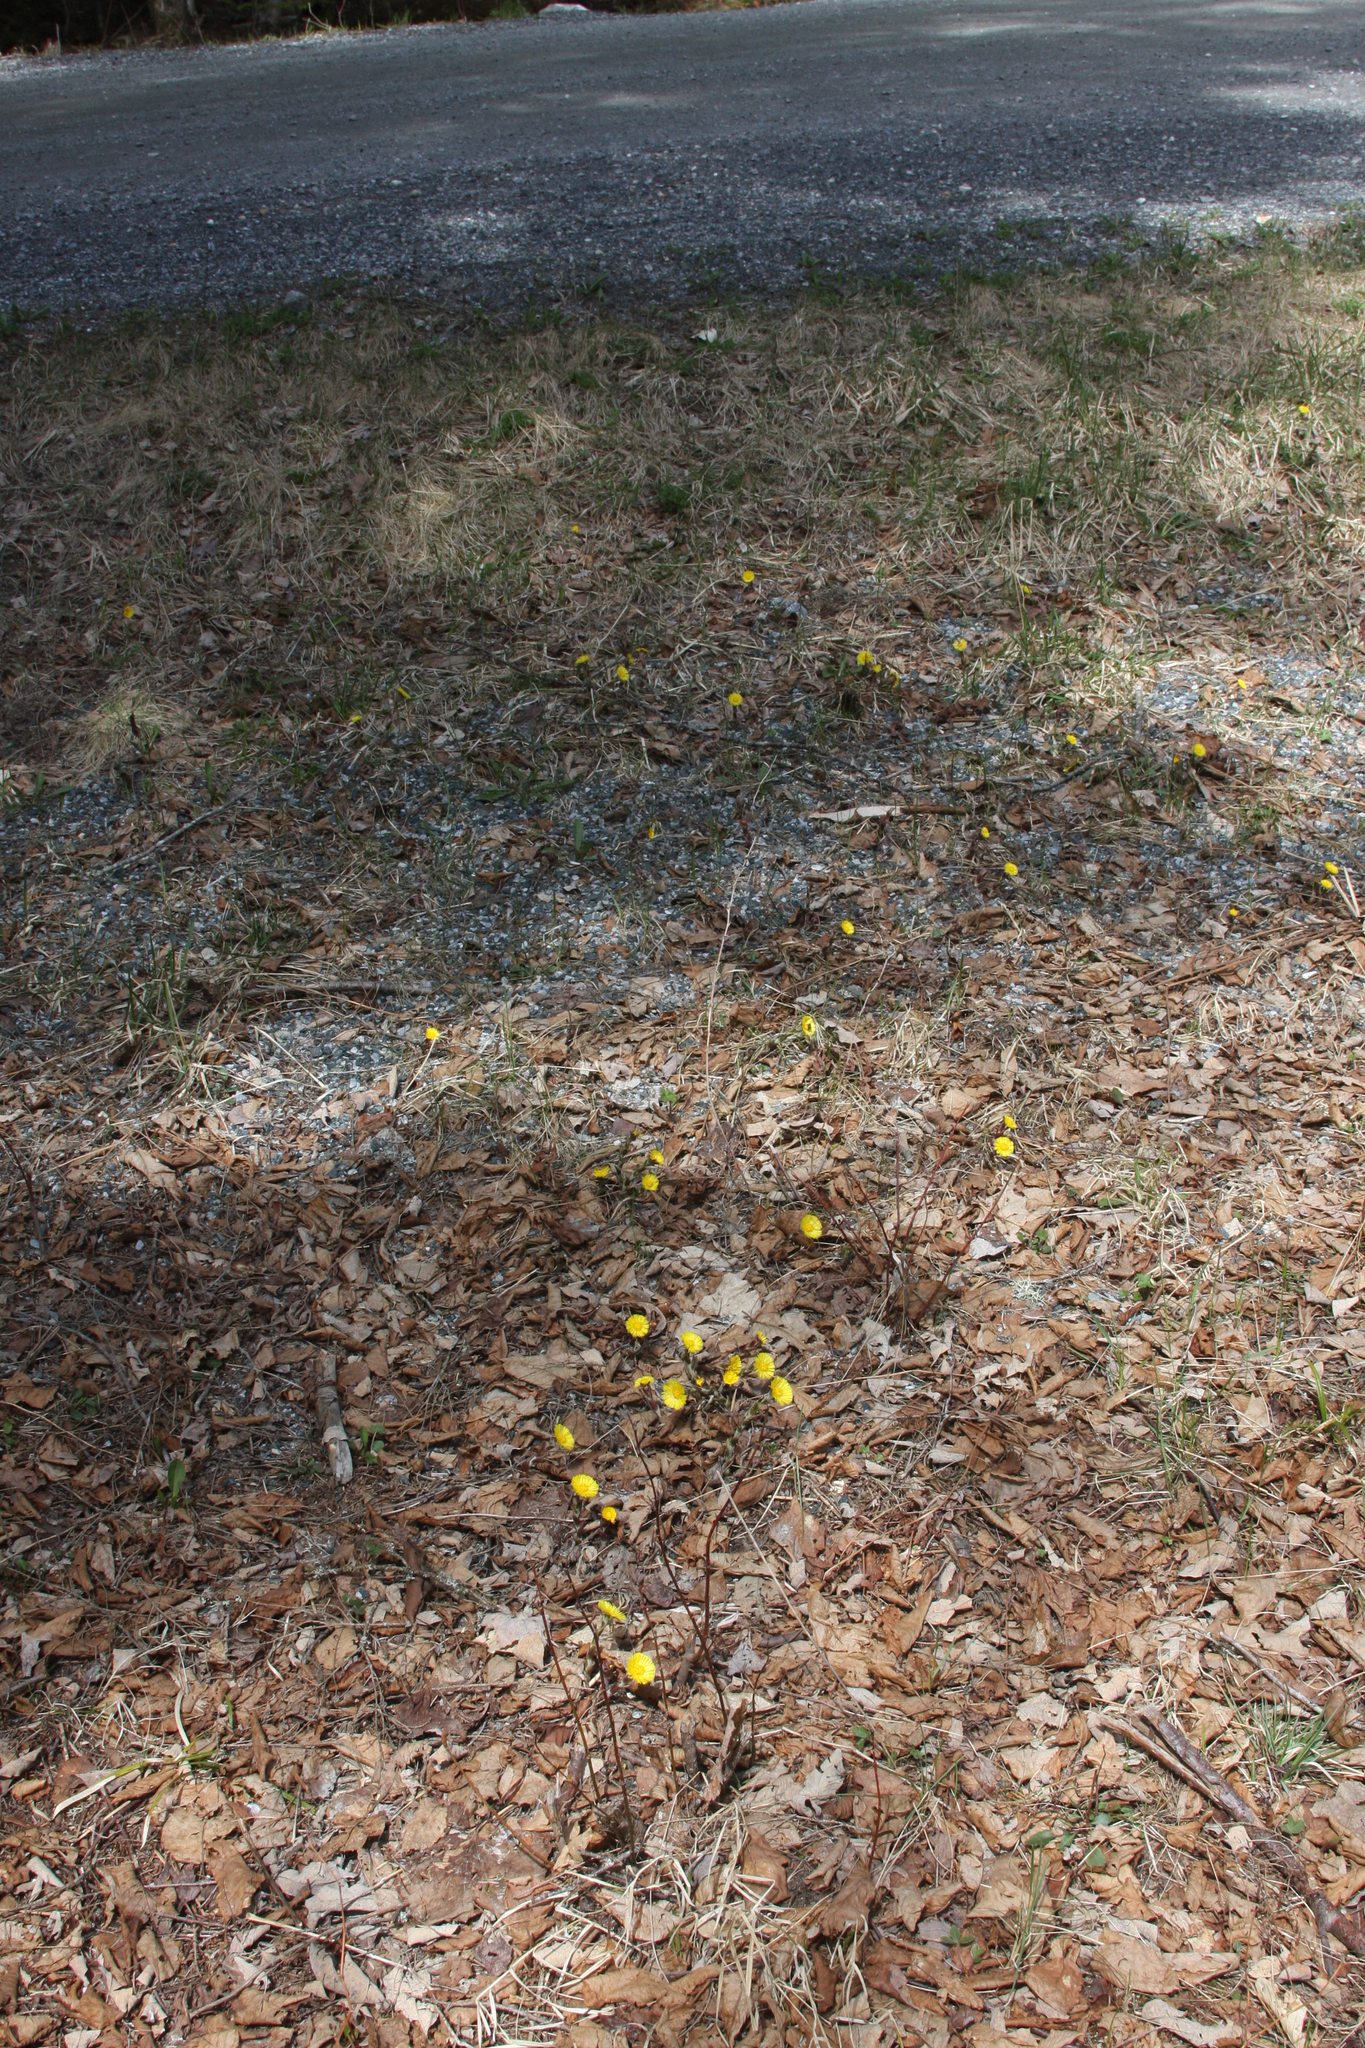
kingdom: Plantae
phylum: Tracheophyta
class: Magnoliopsida
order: Asterales
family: Asteraceae
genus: Tussilago
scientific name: Tussilago farfara
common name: Coltsfoot
